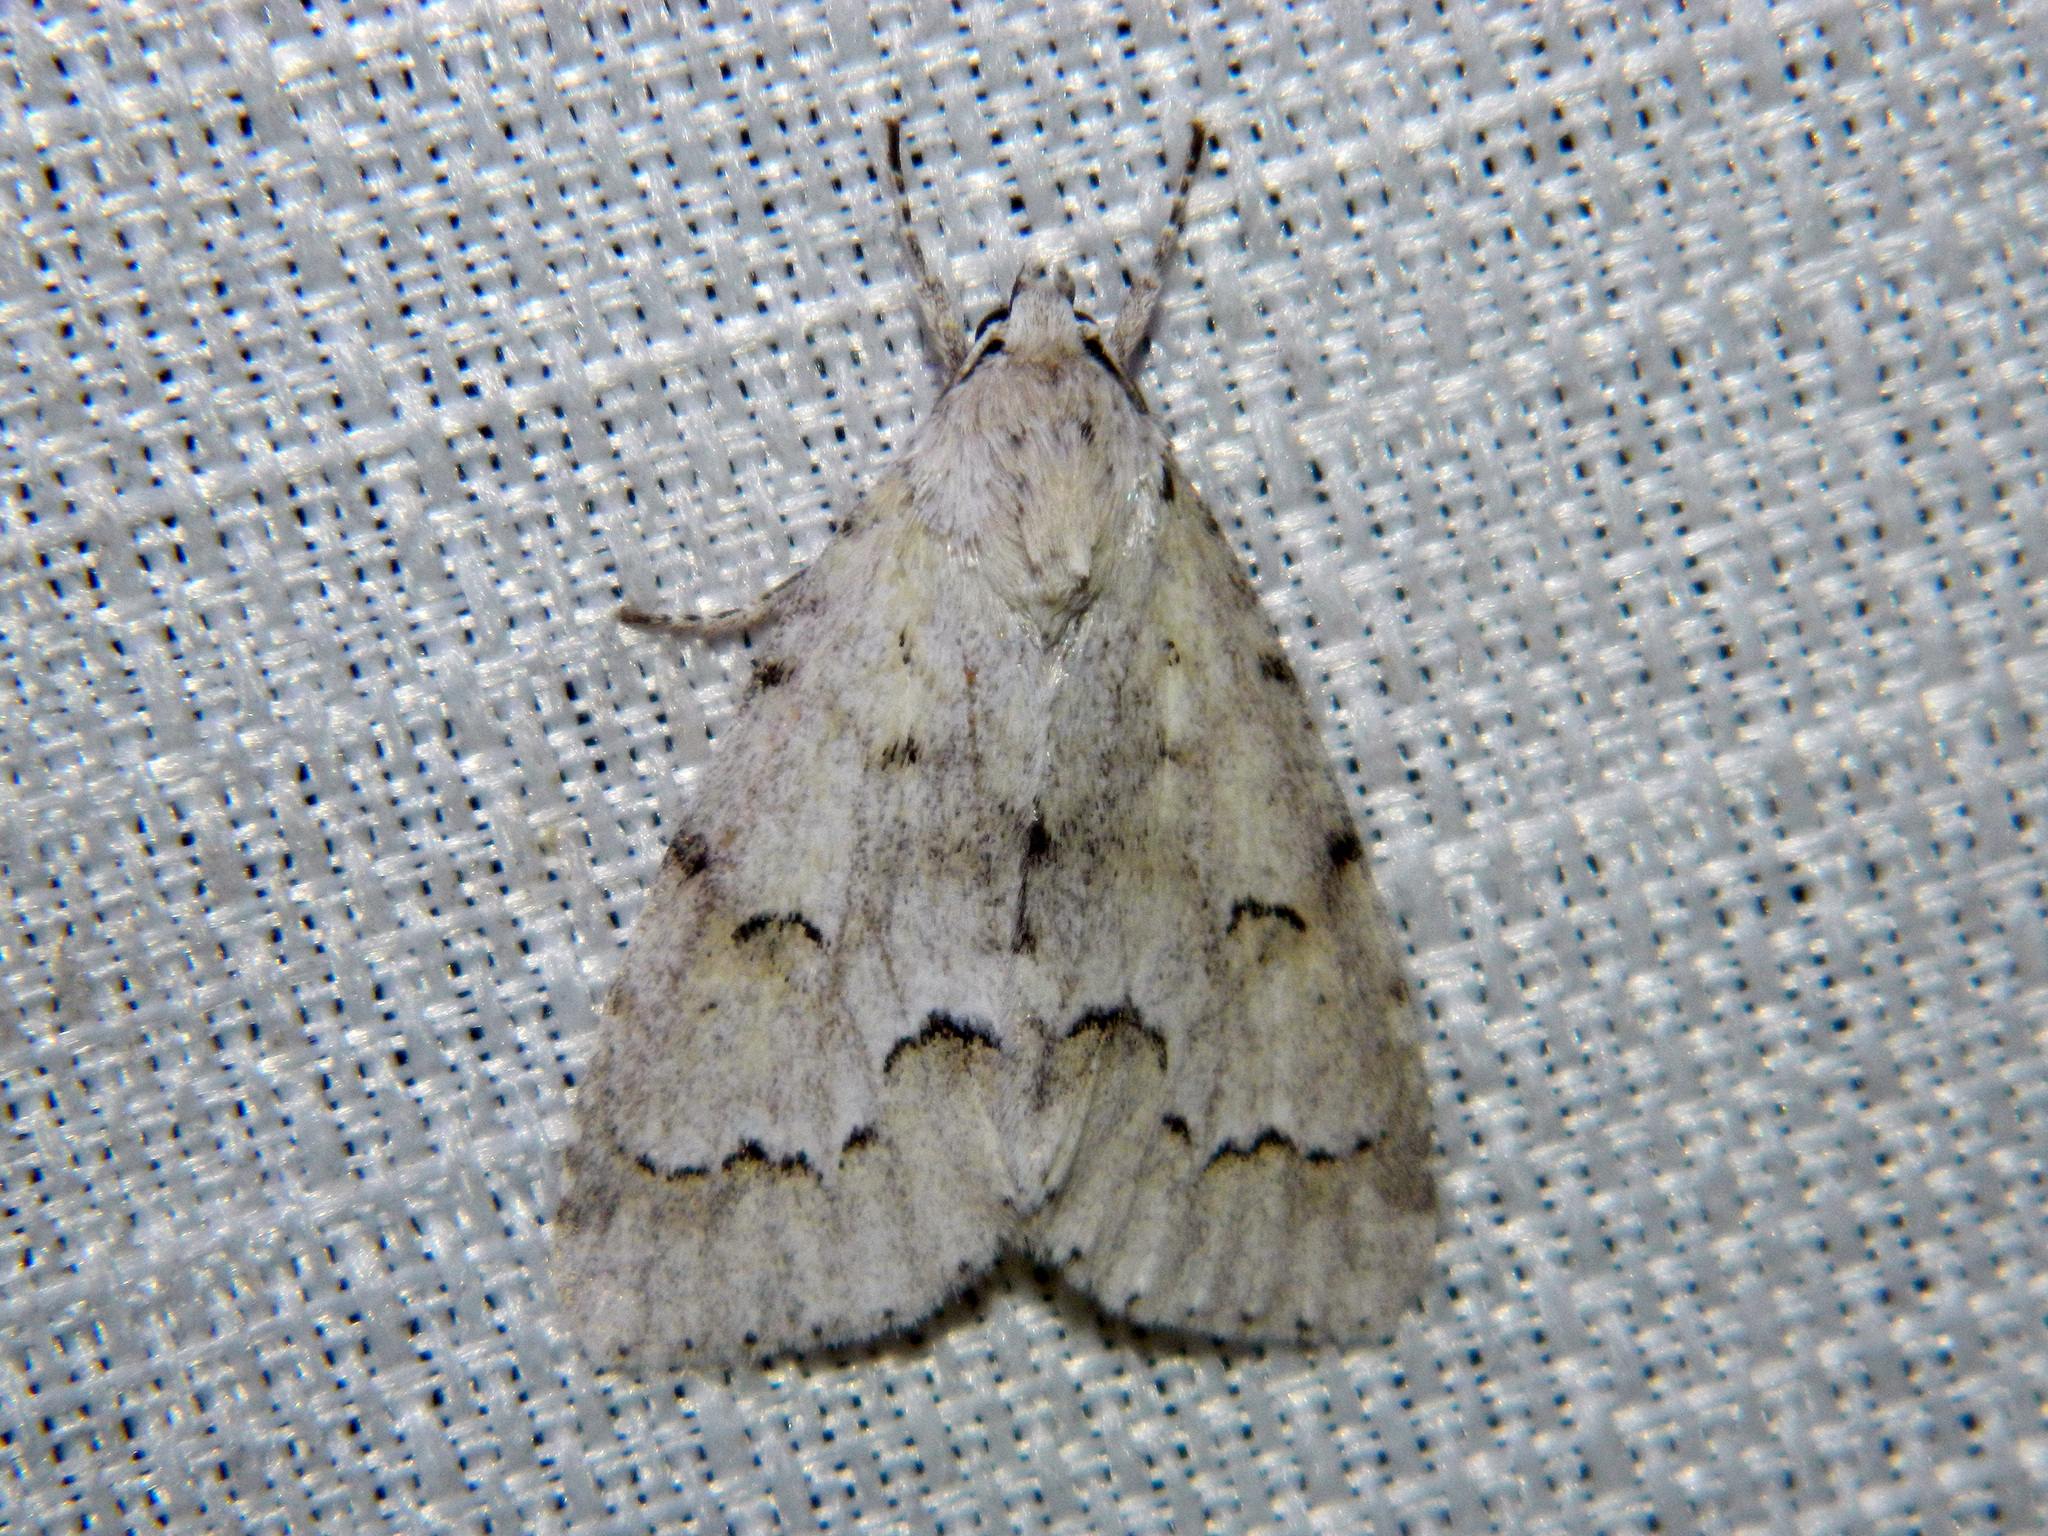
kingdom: Animalia
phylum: Arthropoda
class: Insecta
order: Lepidoptera
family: Noctuidae
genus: Acronicta
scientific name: Acronicta innotata
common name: Unmarked dagger
